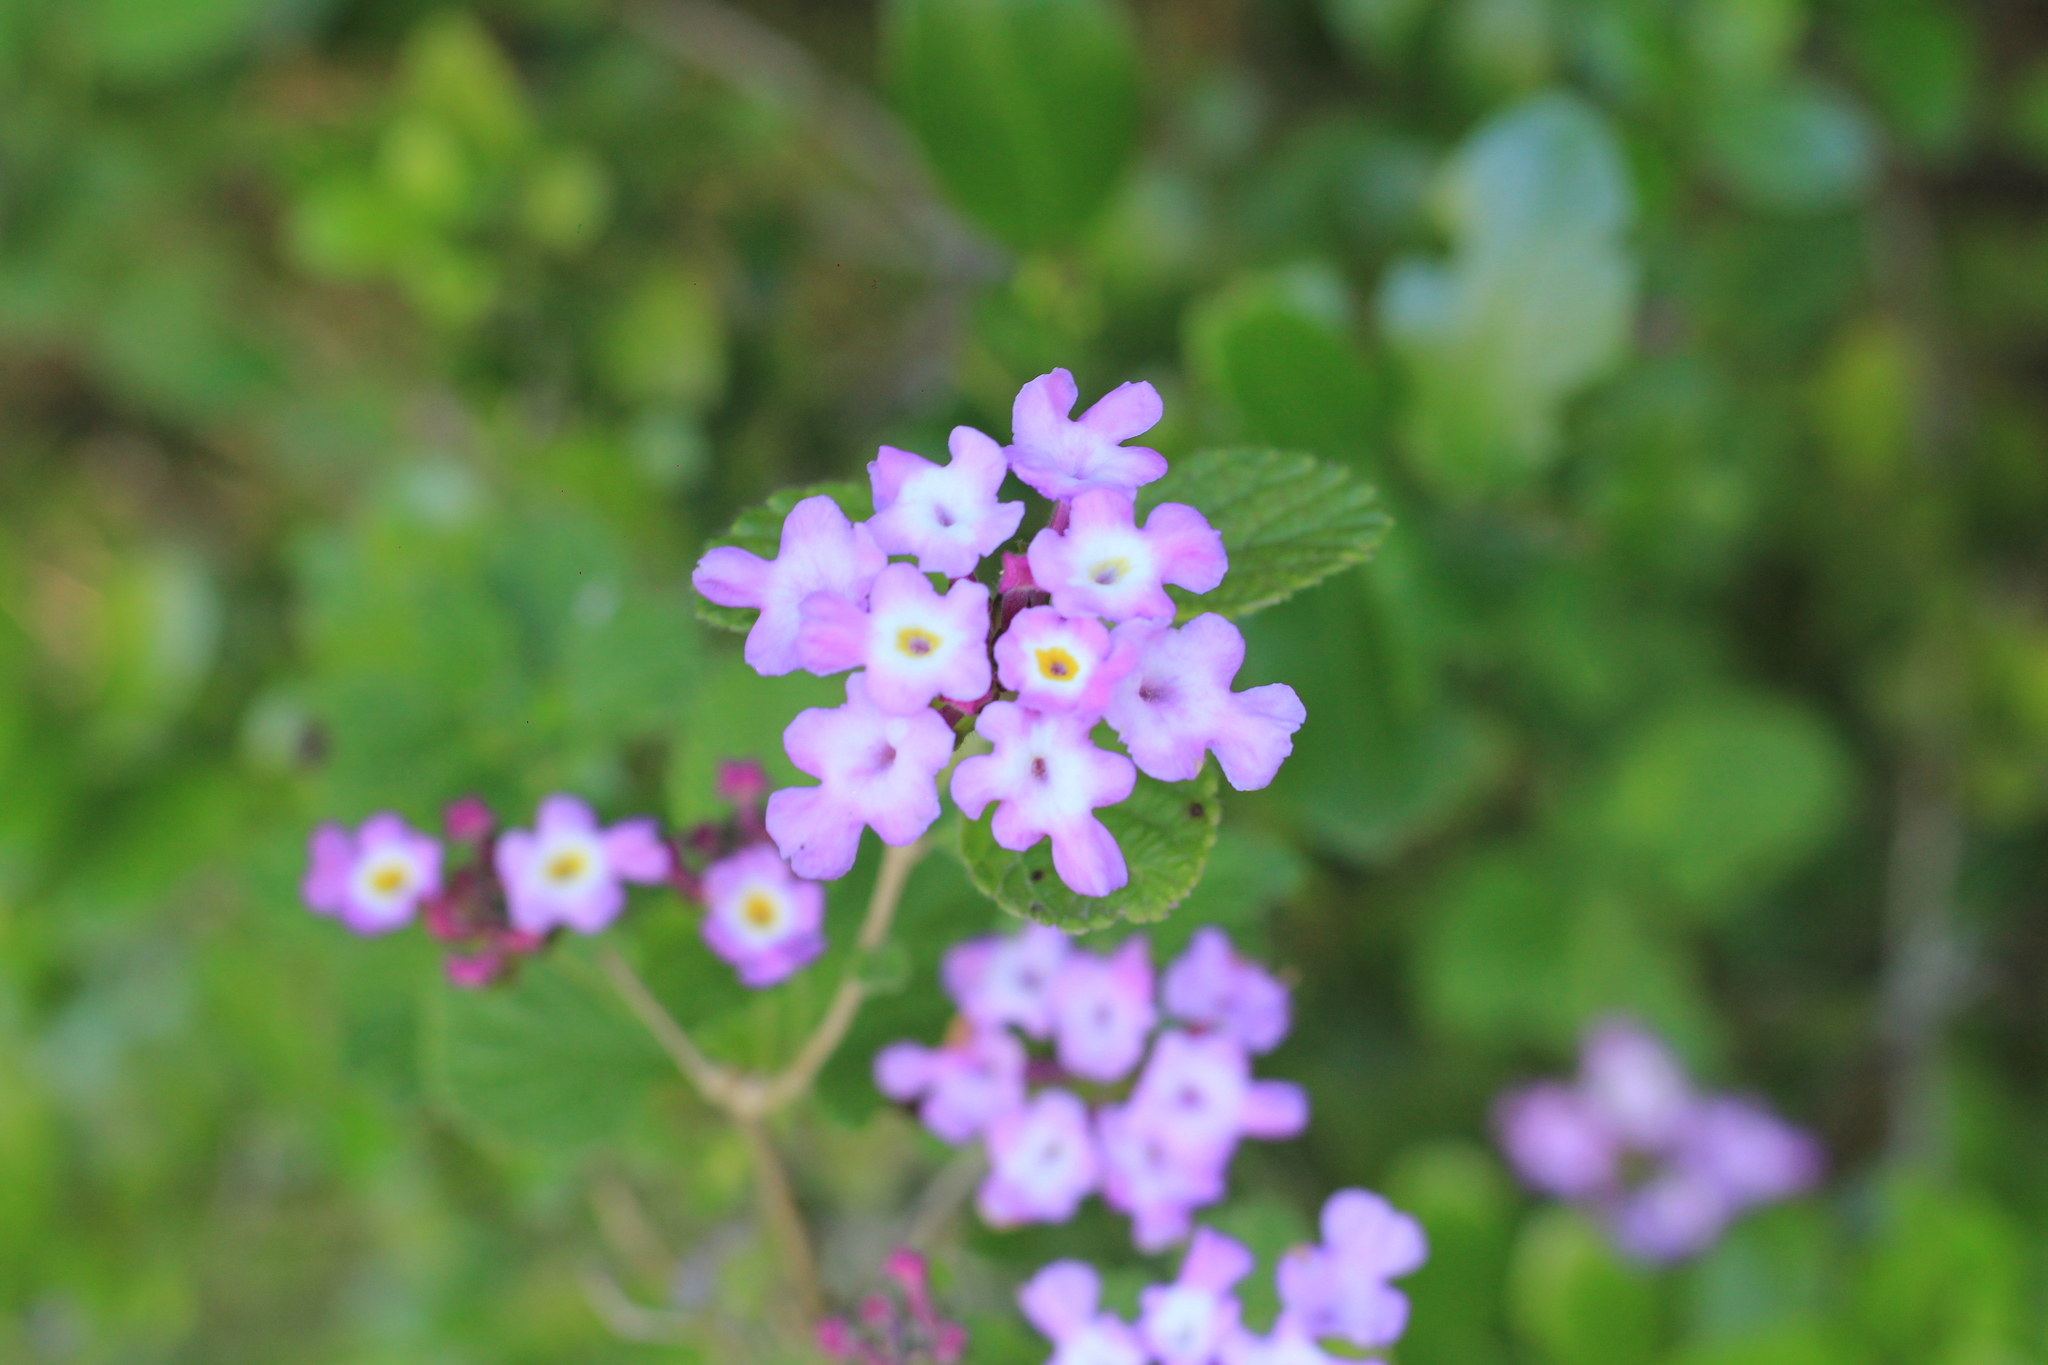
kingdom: Plantae
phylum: Tracheophyta
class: Magnoliopsida
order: Lamiales
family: Verbenaceae
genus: Lantana
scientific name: Lantana megapotamica
